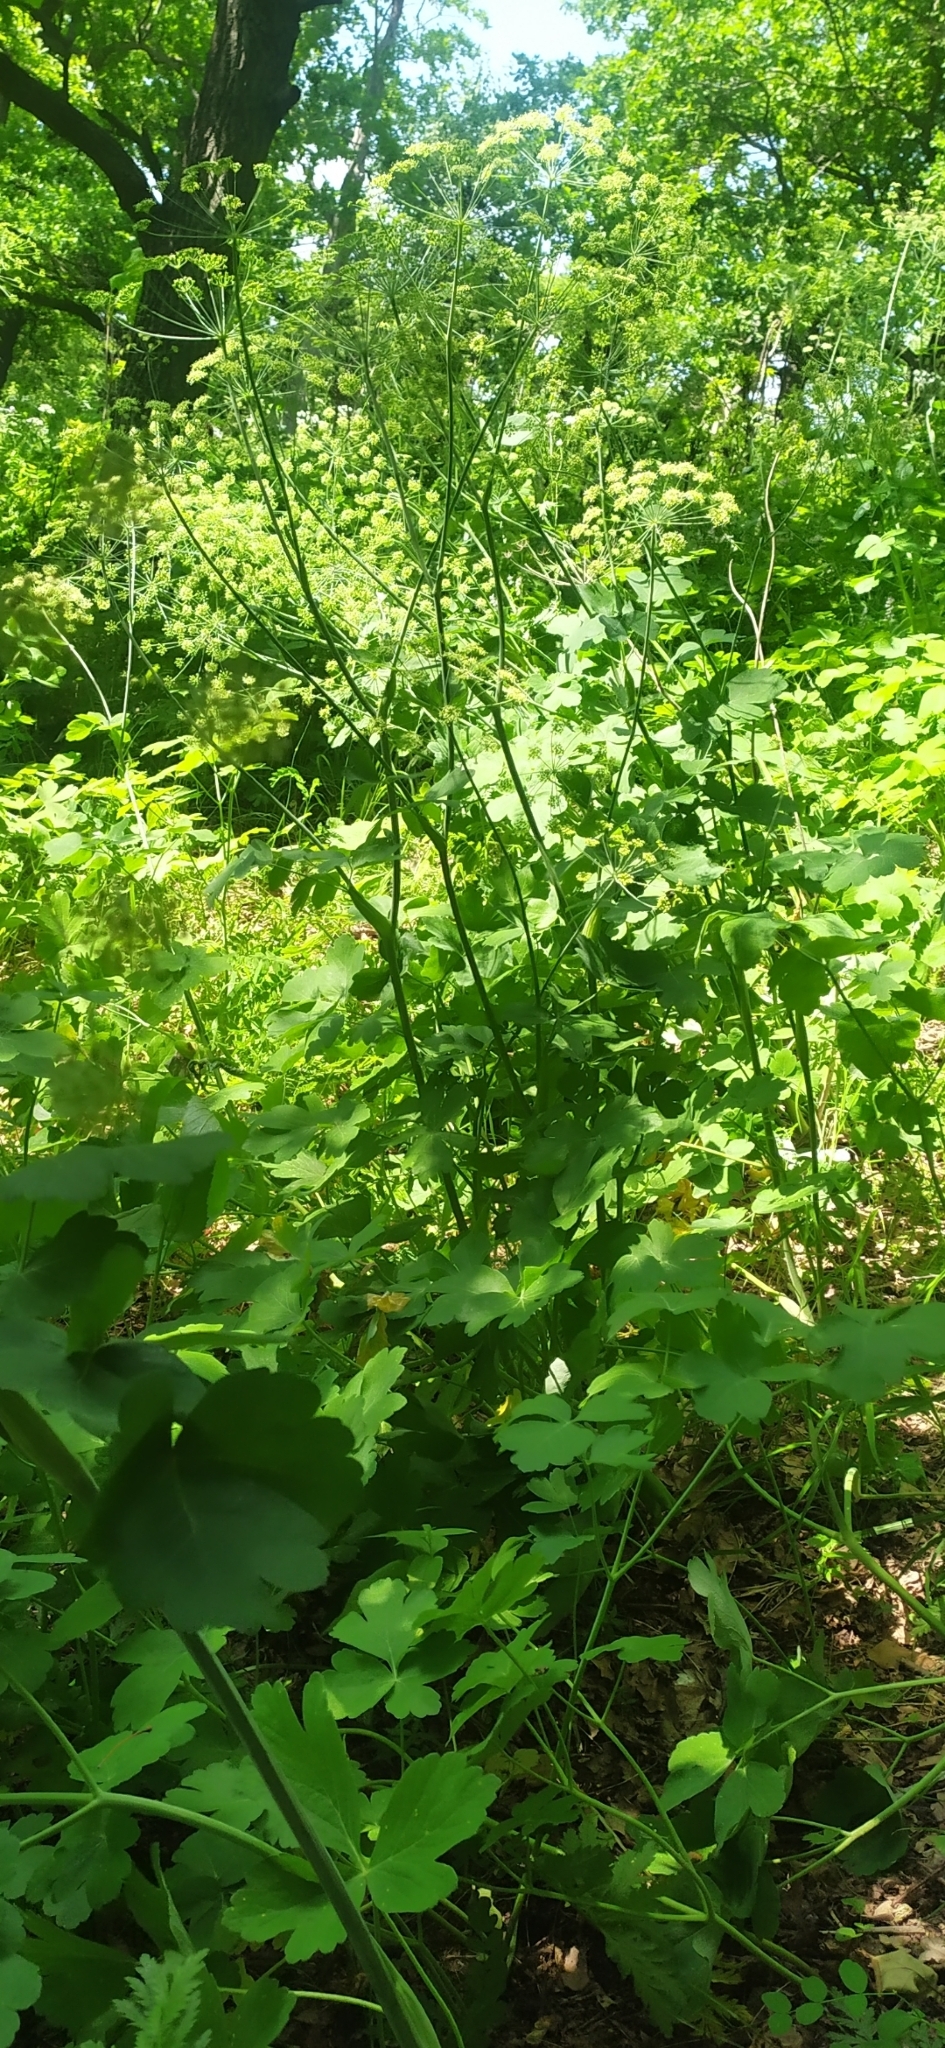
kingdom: Plantae
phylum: Tracheophyta
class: Magnoliopsida
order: Apiales
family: Apiaceae
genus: Laser
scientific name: Laser trilobum
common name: Laser
